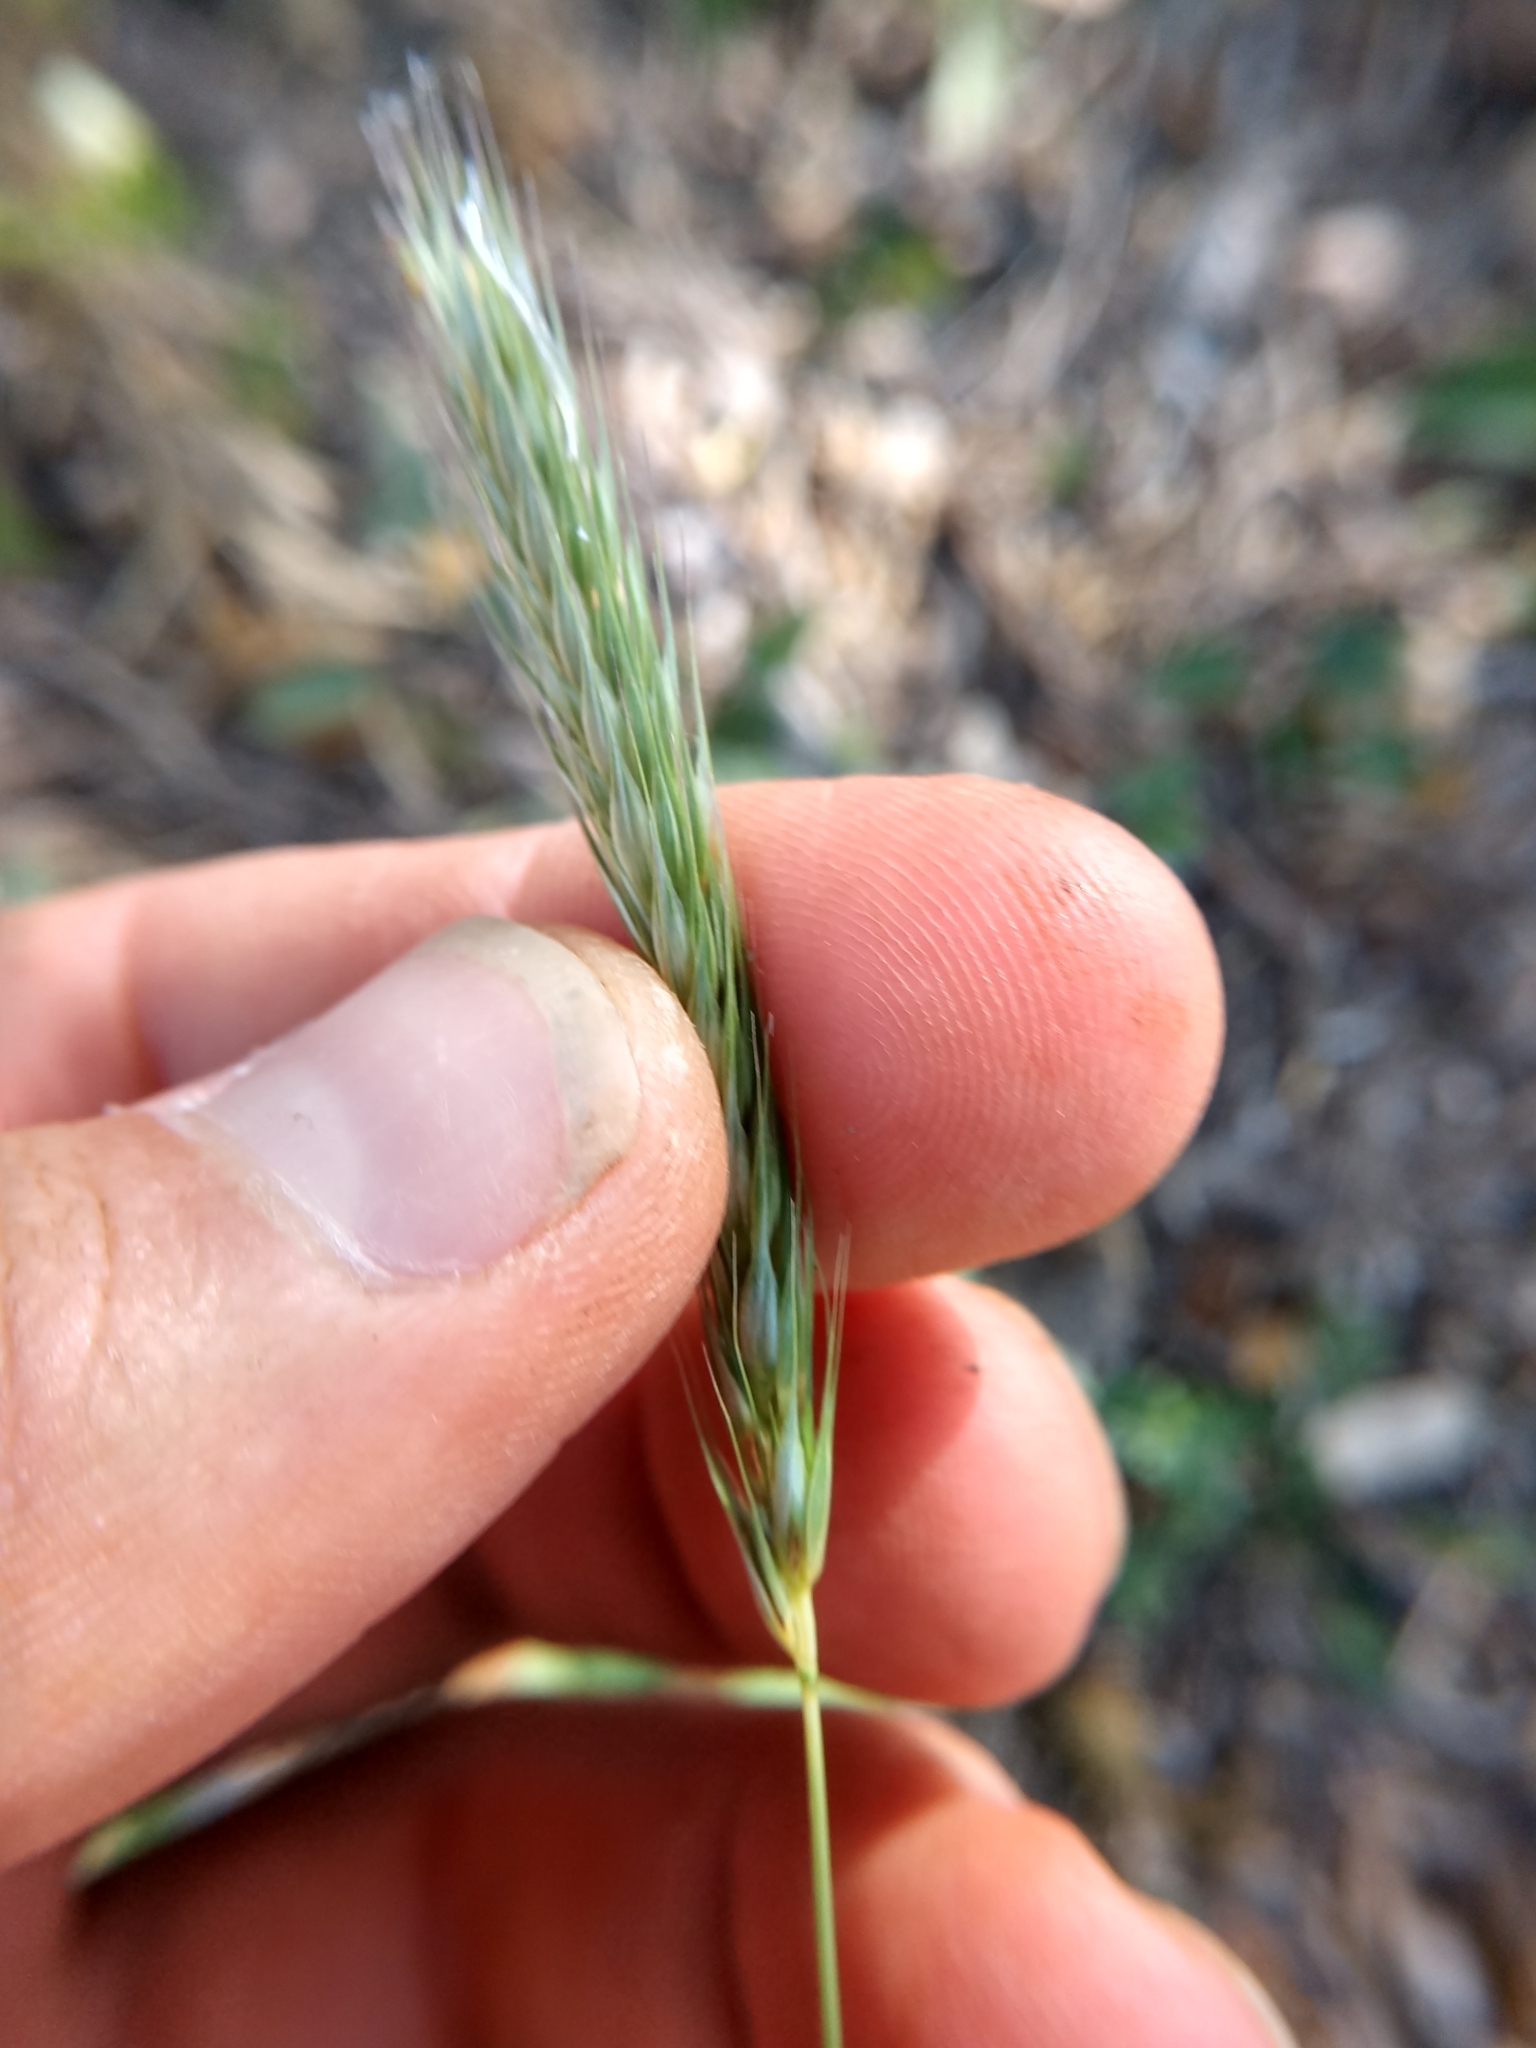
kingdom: Plantae
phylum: Tracheophyta
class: Liliopsida
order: Poales
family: Poaceae
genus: Hordeum
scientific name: Hordeum pusillum
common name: Little barley
